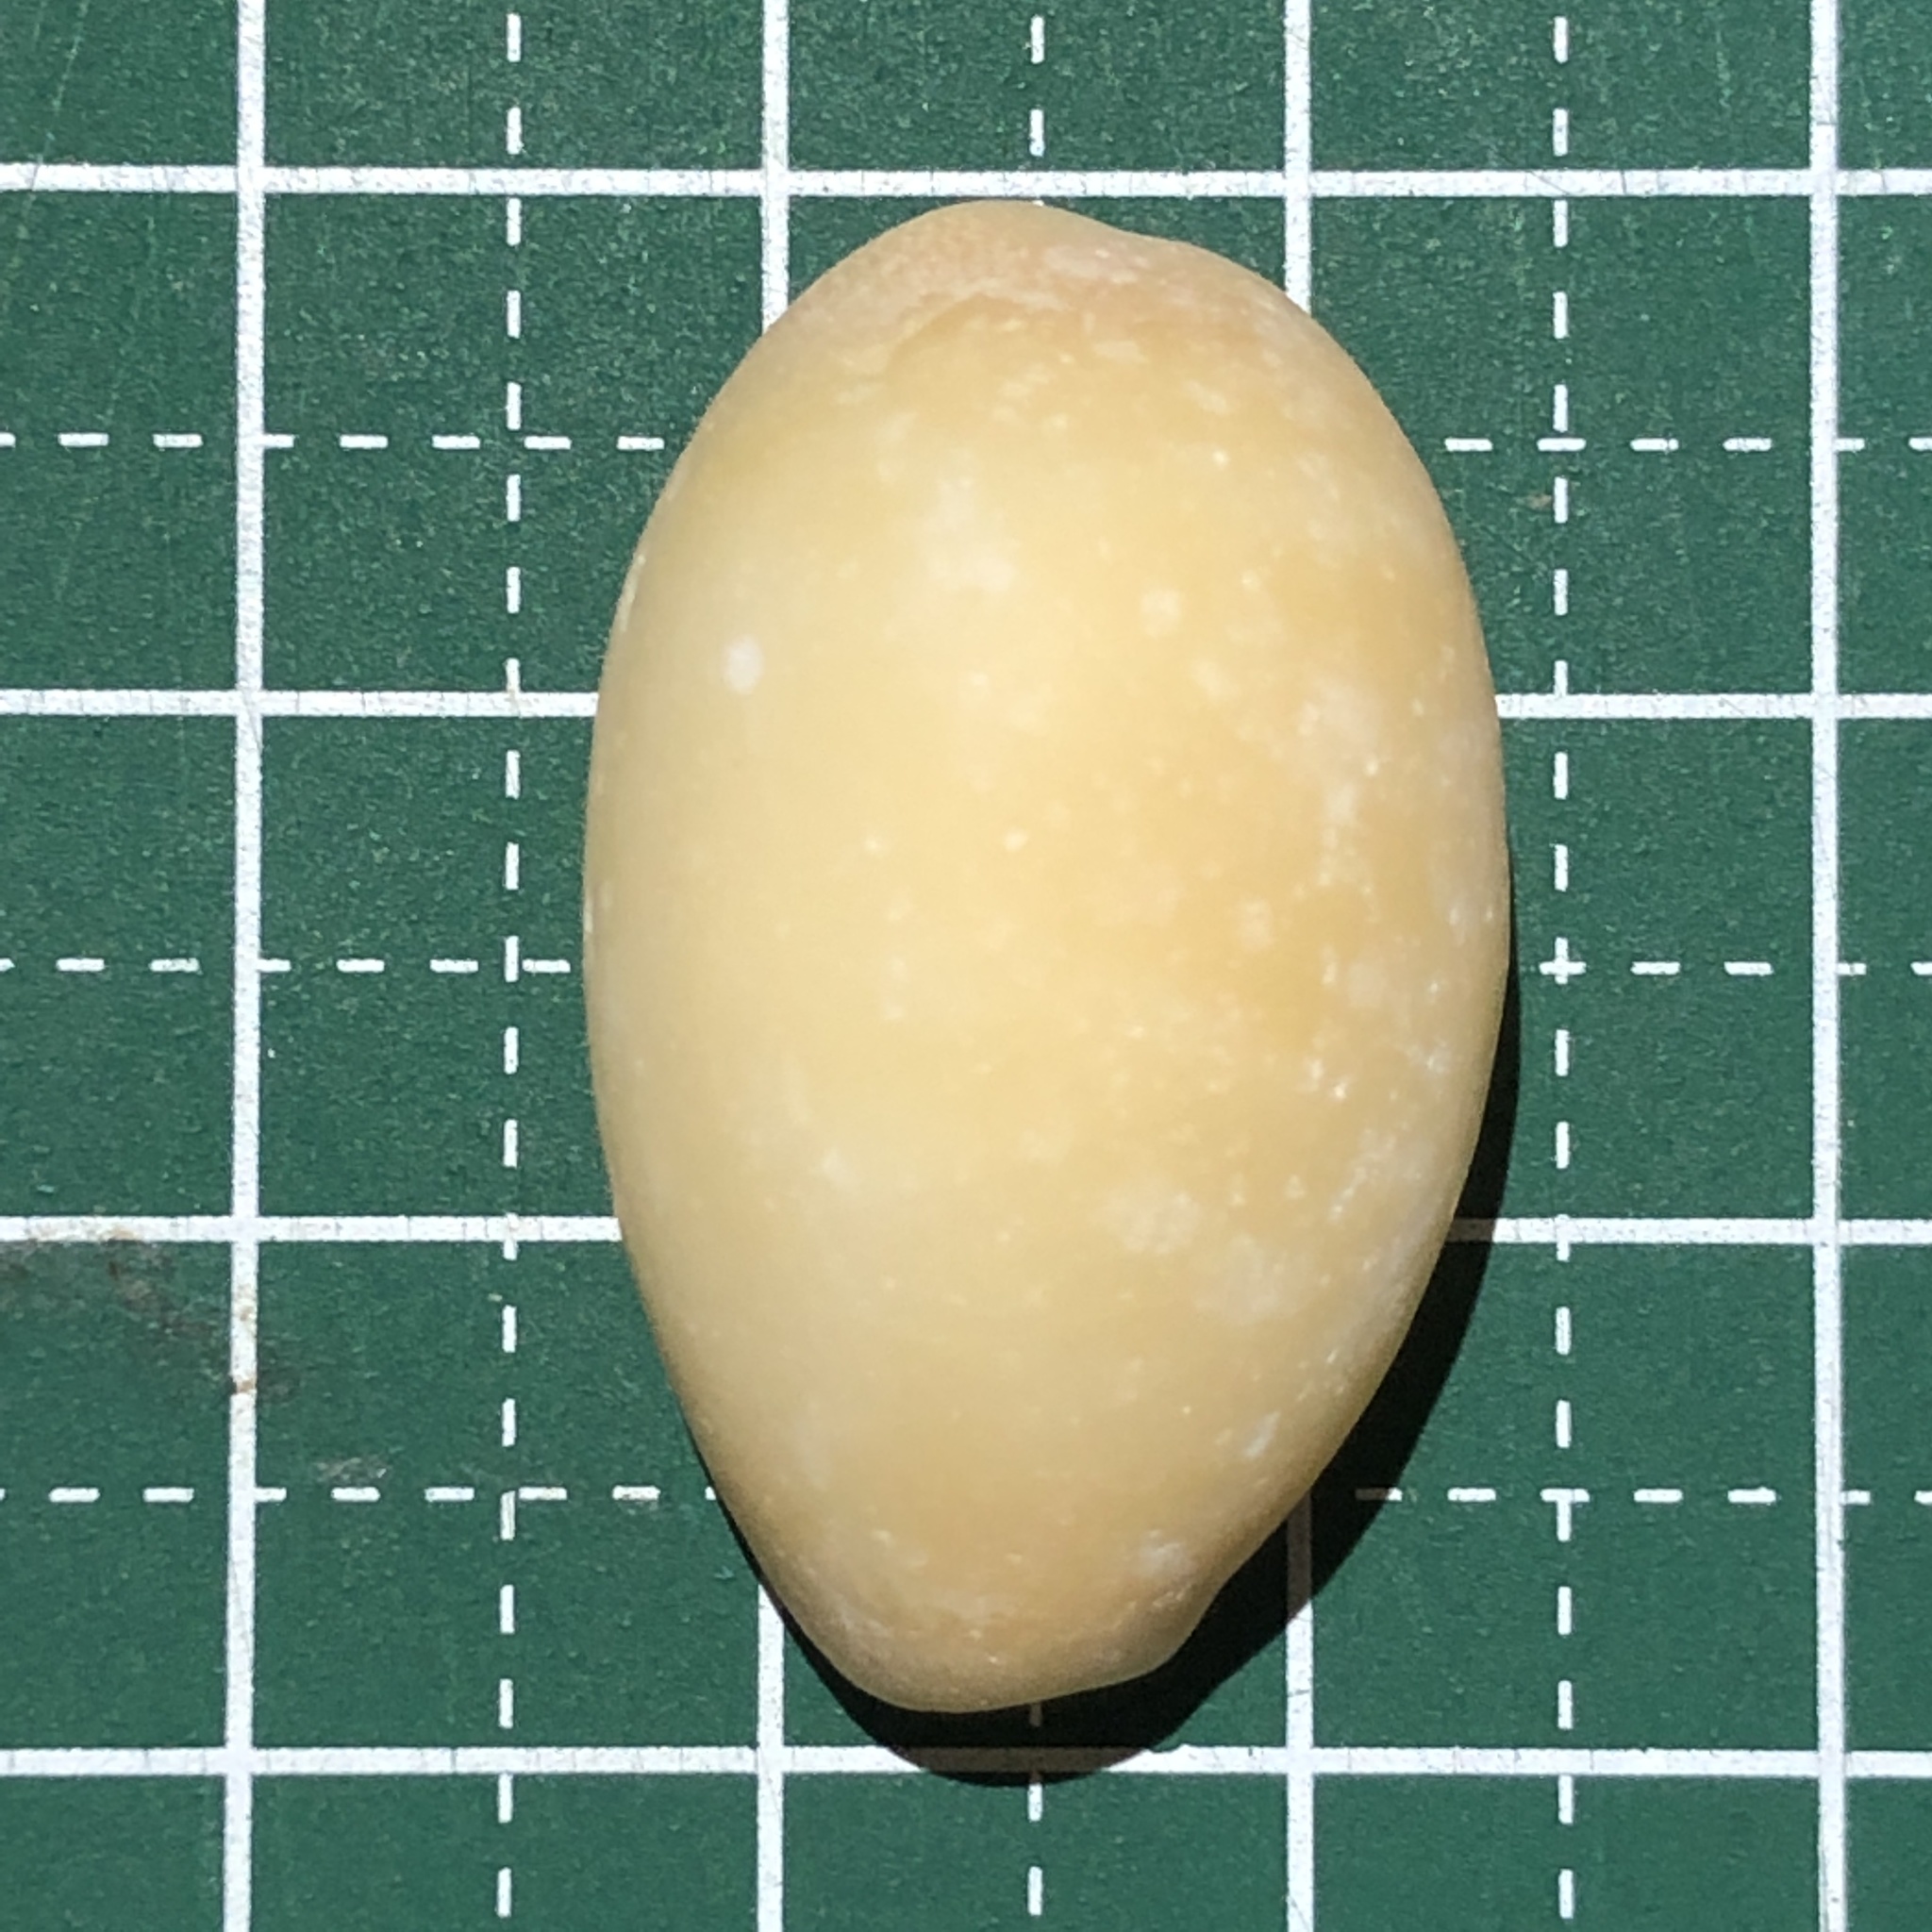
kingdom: Animalia
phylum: Mollusca
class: Gastropoda
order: Littorinimorpha
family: Cypraeidae
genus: Lyncina
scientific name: Lyncina carneola
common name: Purple-mouthed cowry
